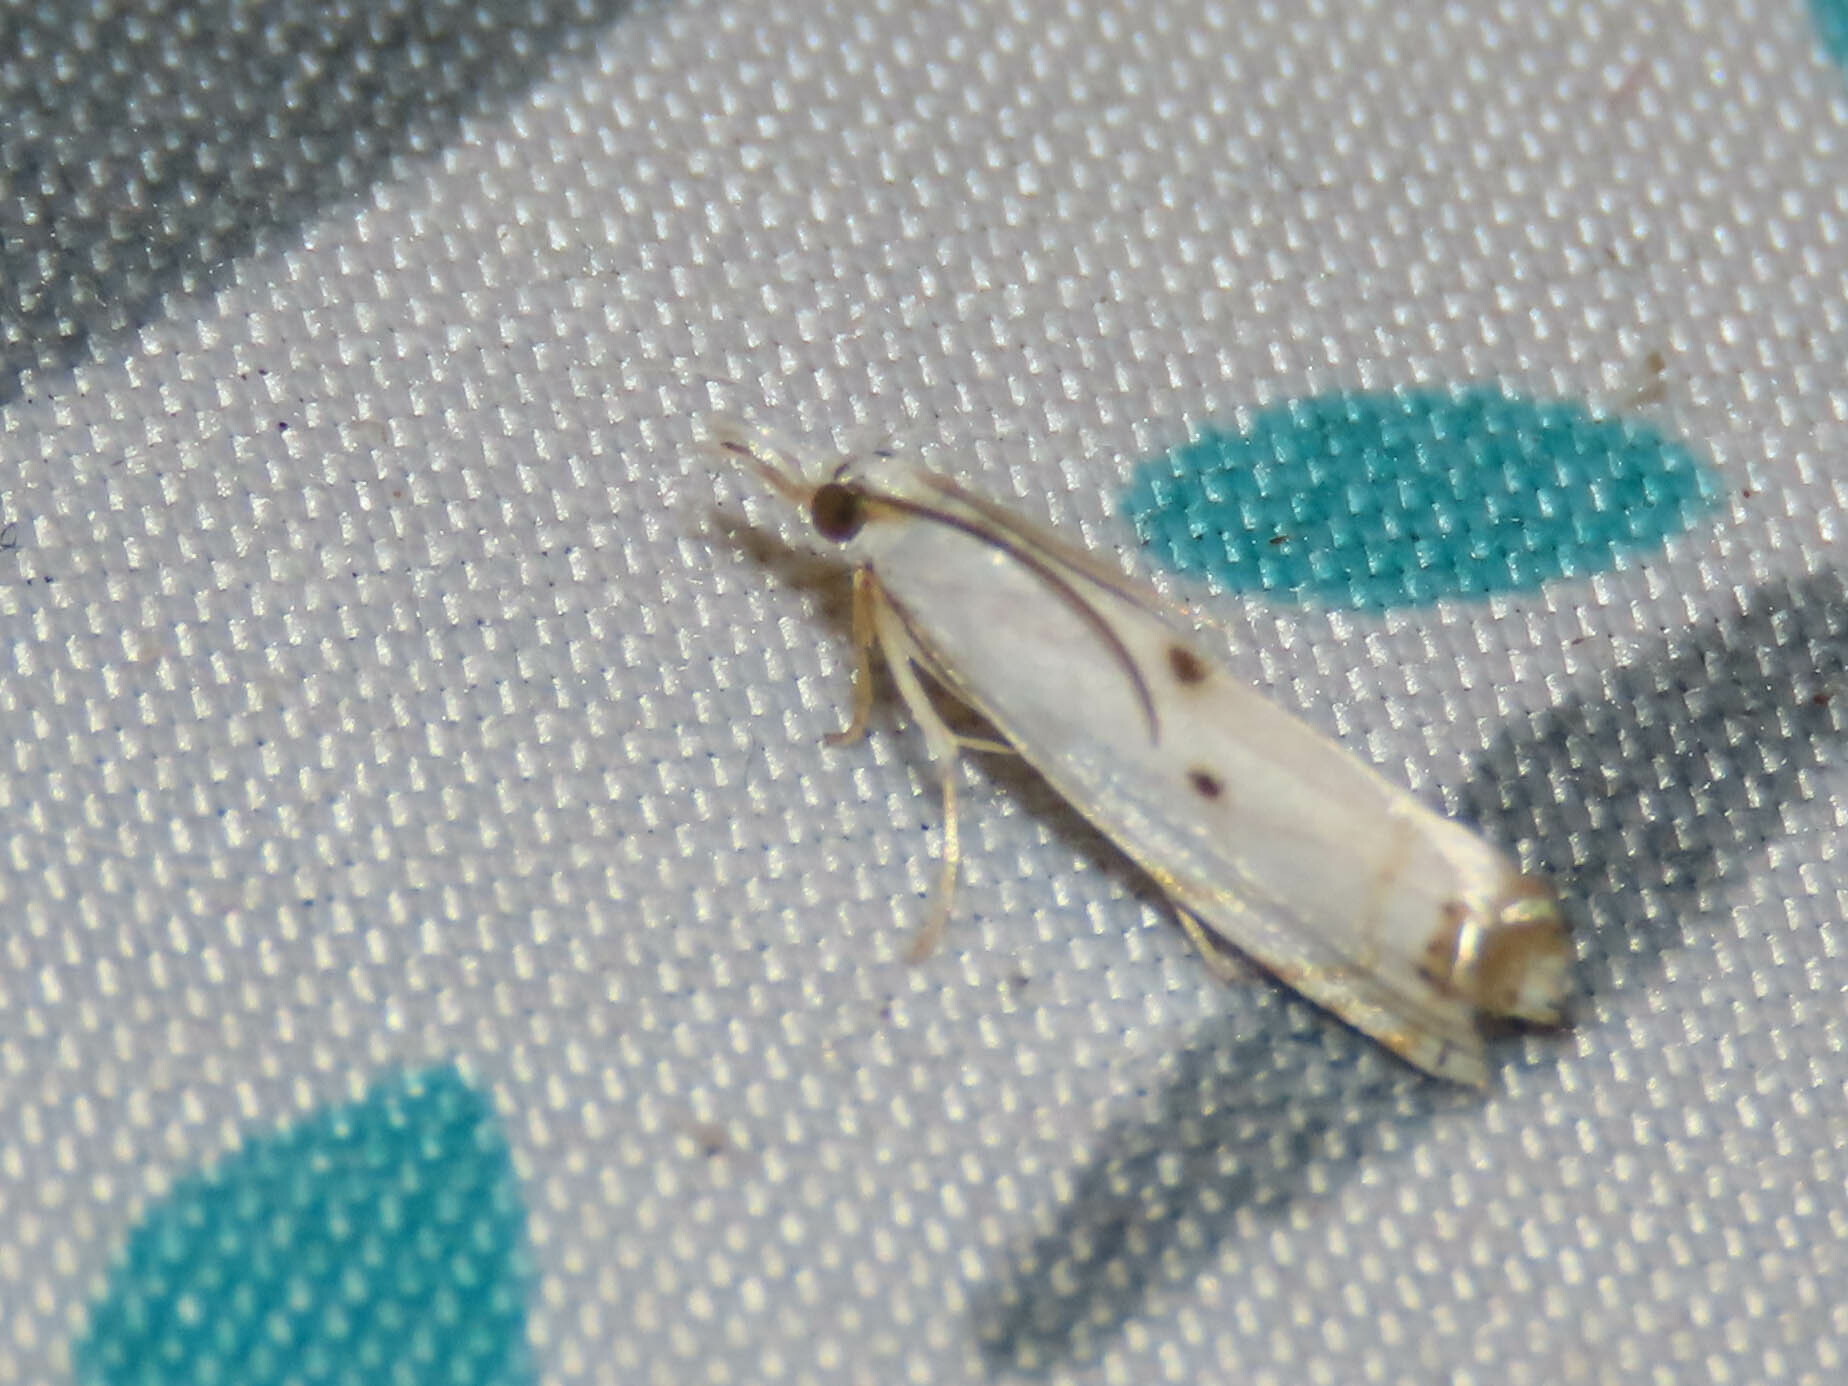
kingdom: Animalia
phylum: Arthropoda
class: Insecta
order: Lepidoptera
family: Crambidae
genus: Microcrambus
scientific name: Microcrambus biguttellus
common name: Gold-stripe grass-veneer moth
